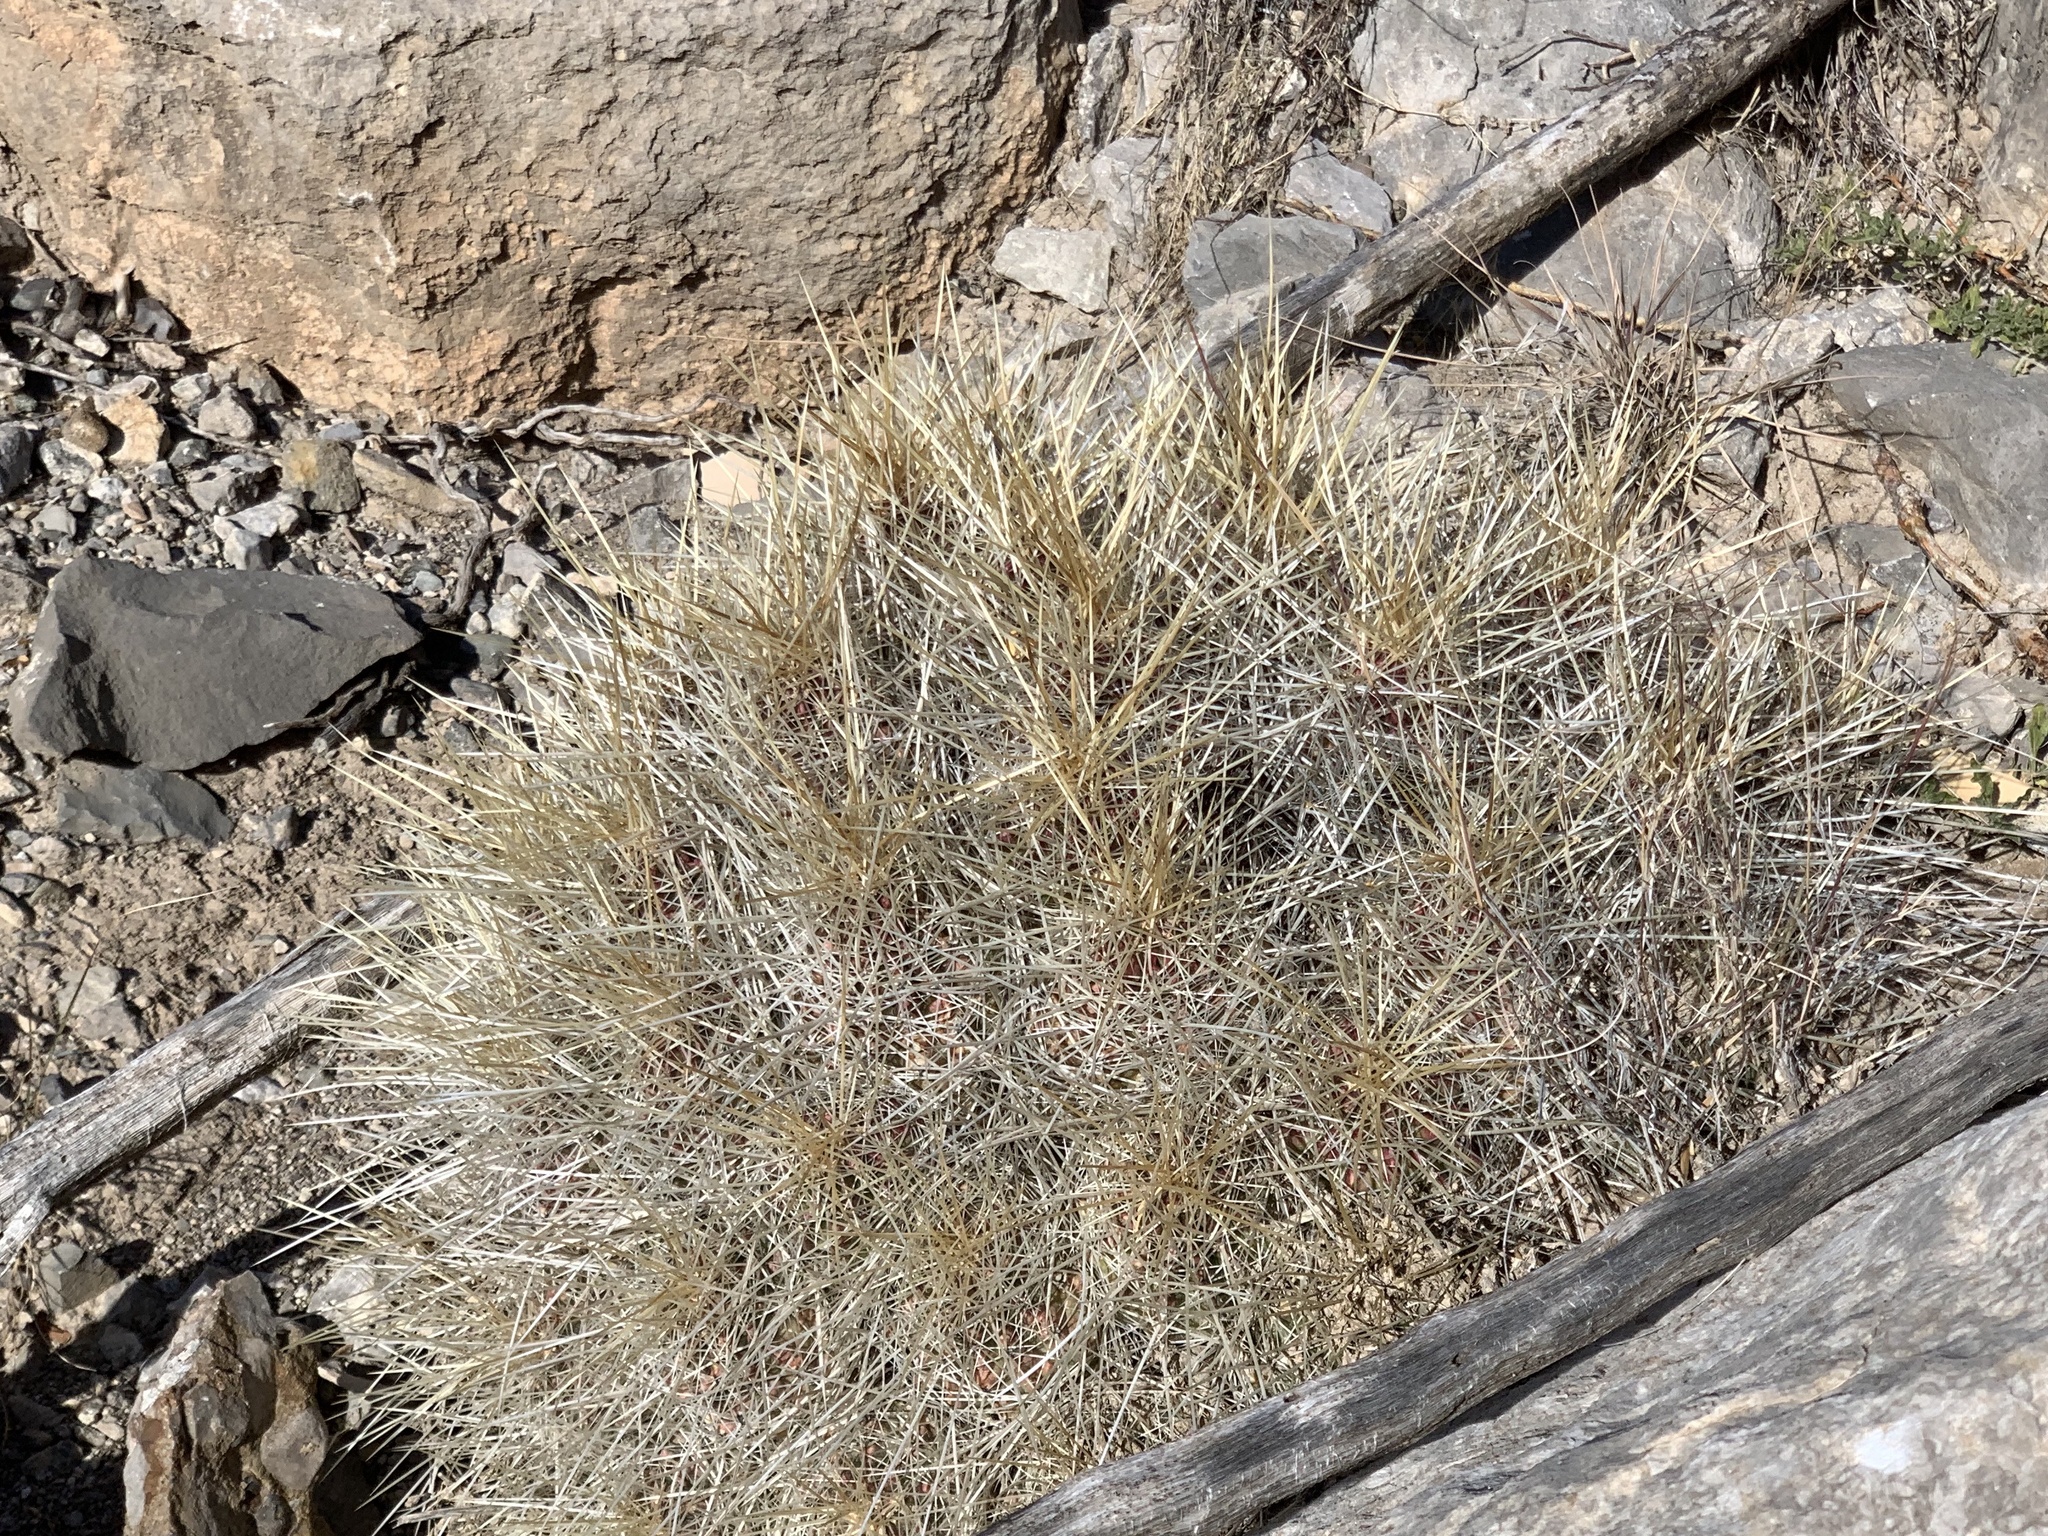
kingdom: Plantae
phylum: Tracheophyta
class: Magnoliopsida
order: Caryophyllales
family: Cactaceae
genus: Echinocereus
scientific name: Echinocereus stramineus
